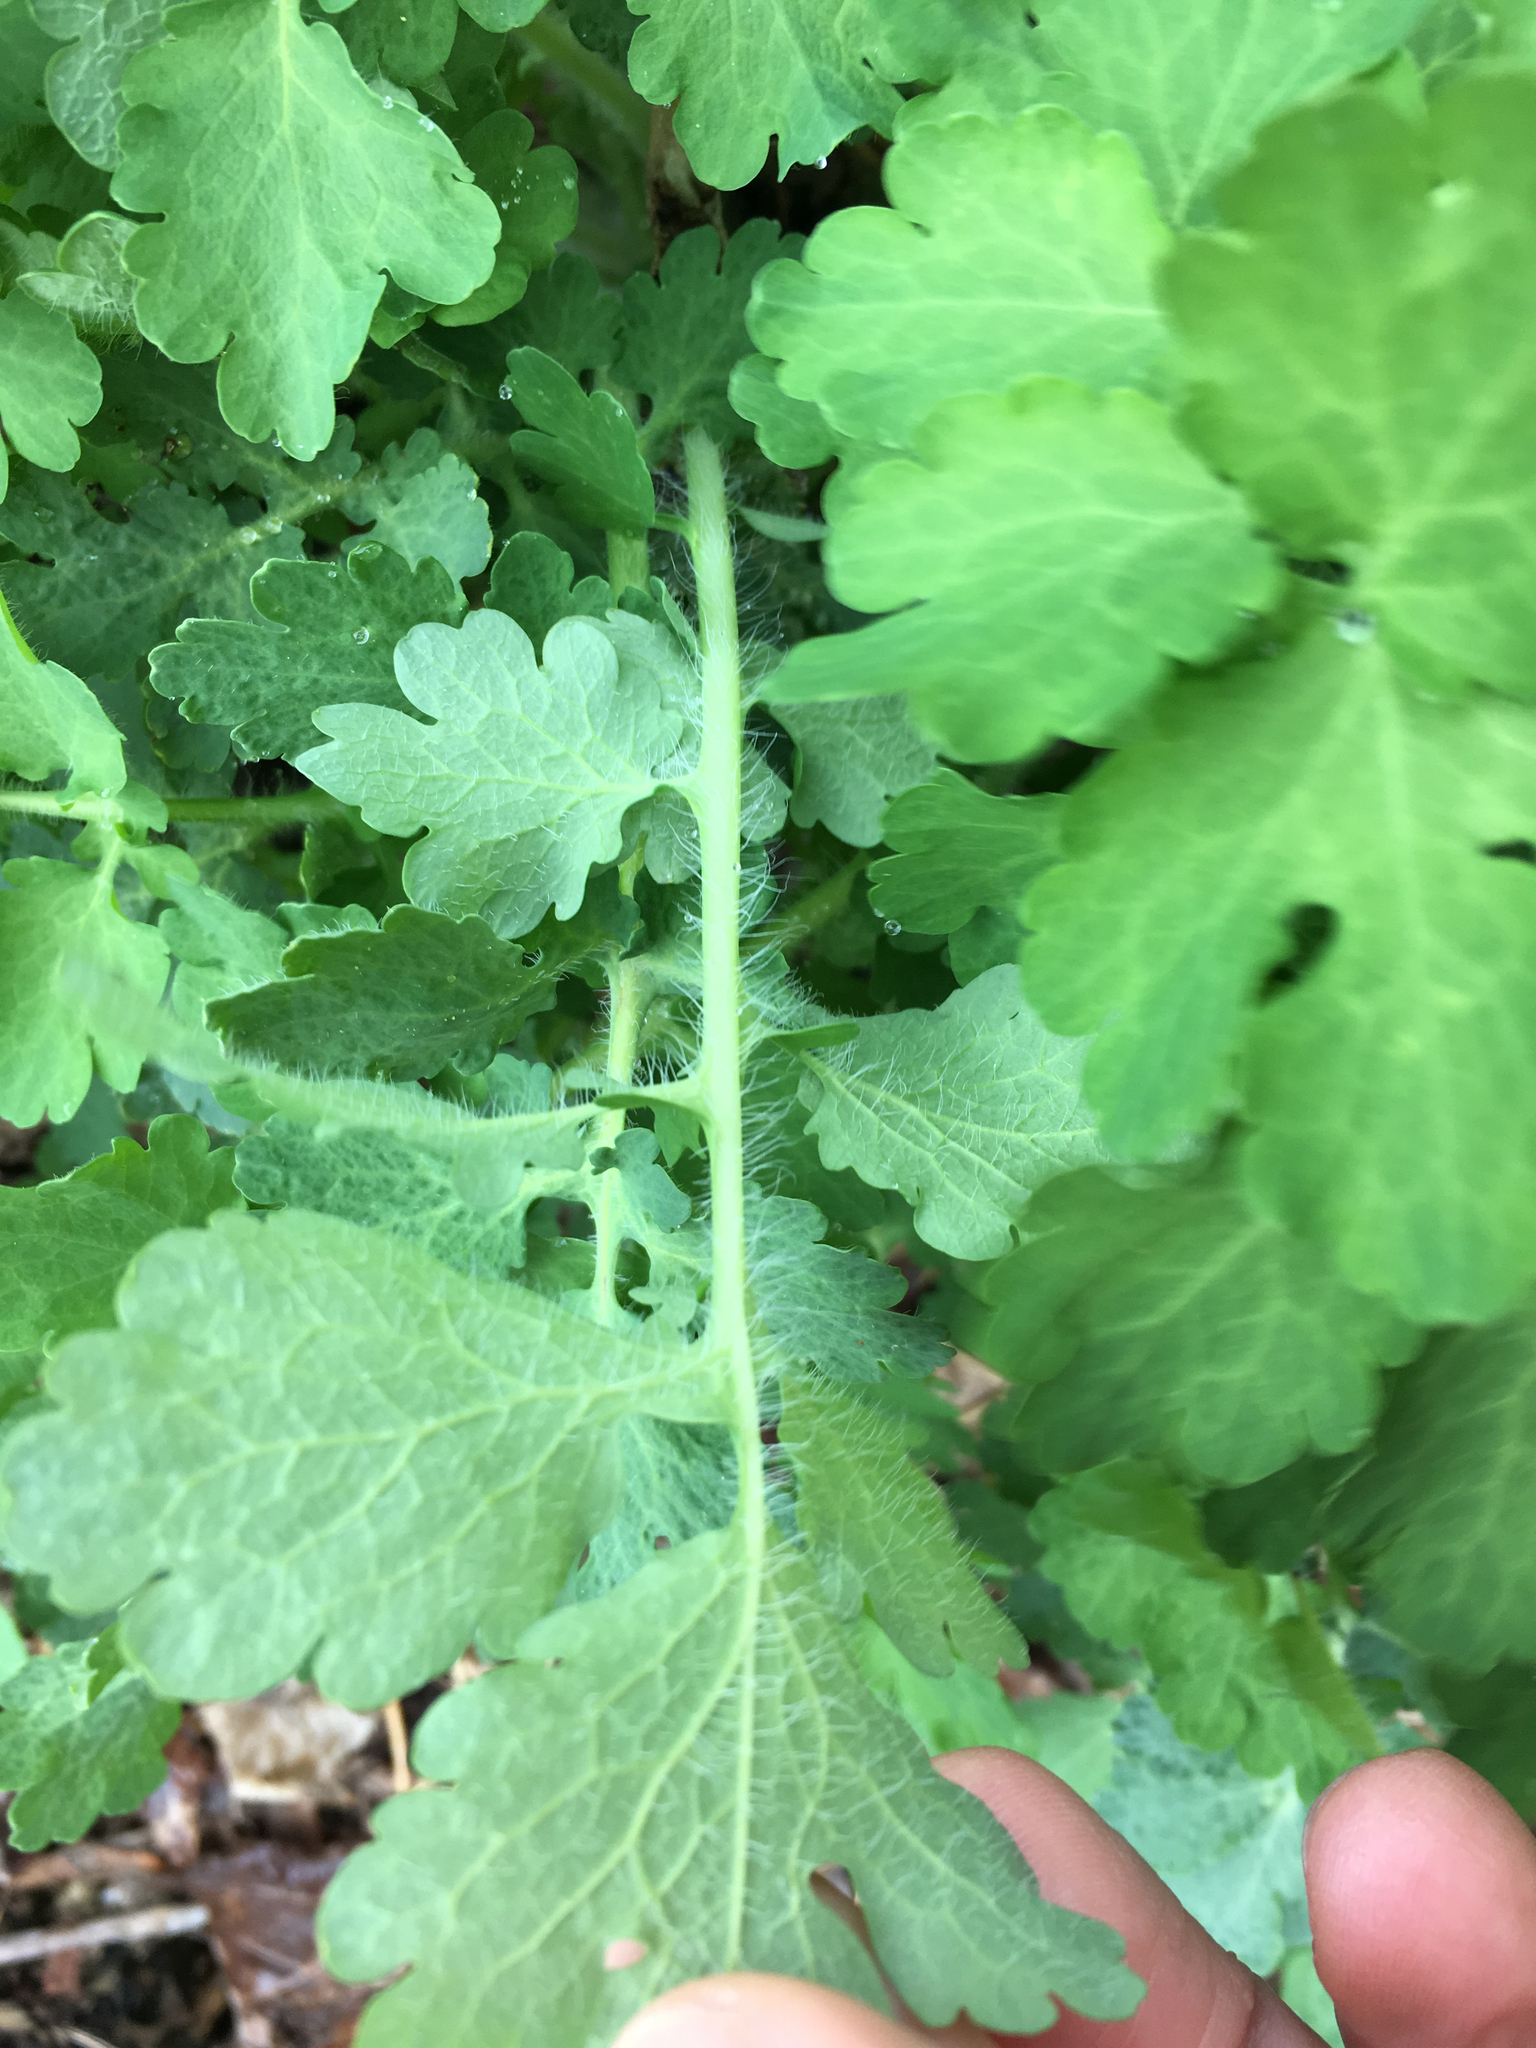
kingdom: Plantae
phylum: Tracheophyta
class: Magnoliopsida
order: Ranunculales
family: Papaveraceae
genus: Chelidonium
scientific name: Chelidonium majus
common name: Greater celandine
